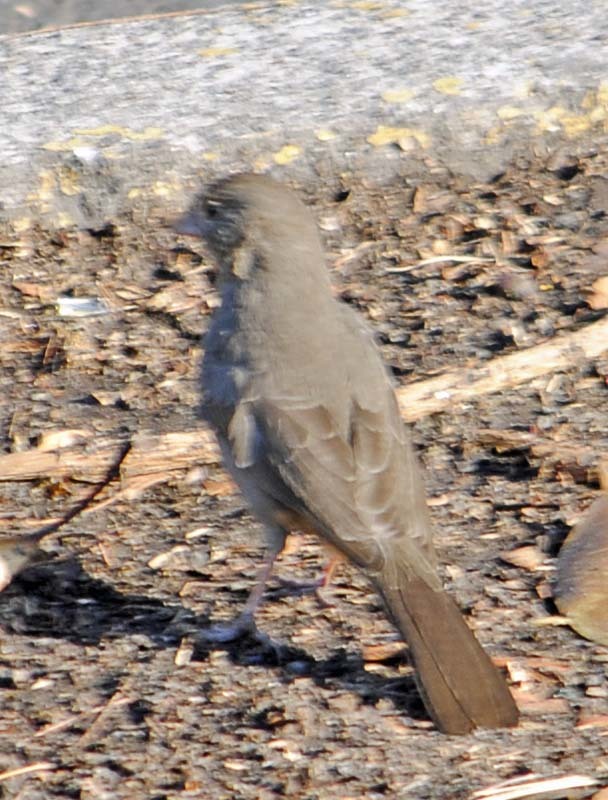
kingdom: Animalia
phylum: Chordata
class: Aves
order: Passeriformes
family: Passerellidae
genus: Melozone
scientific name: Melozone fusca
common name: Canyon towhee
